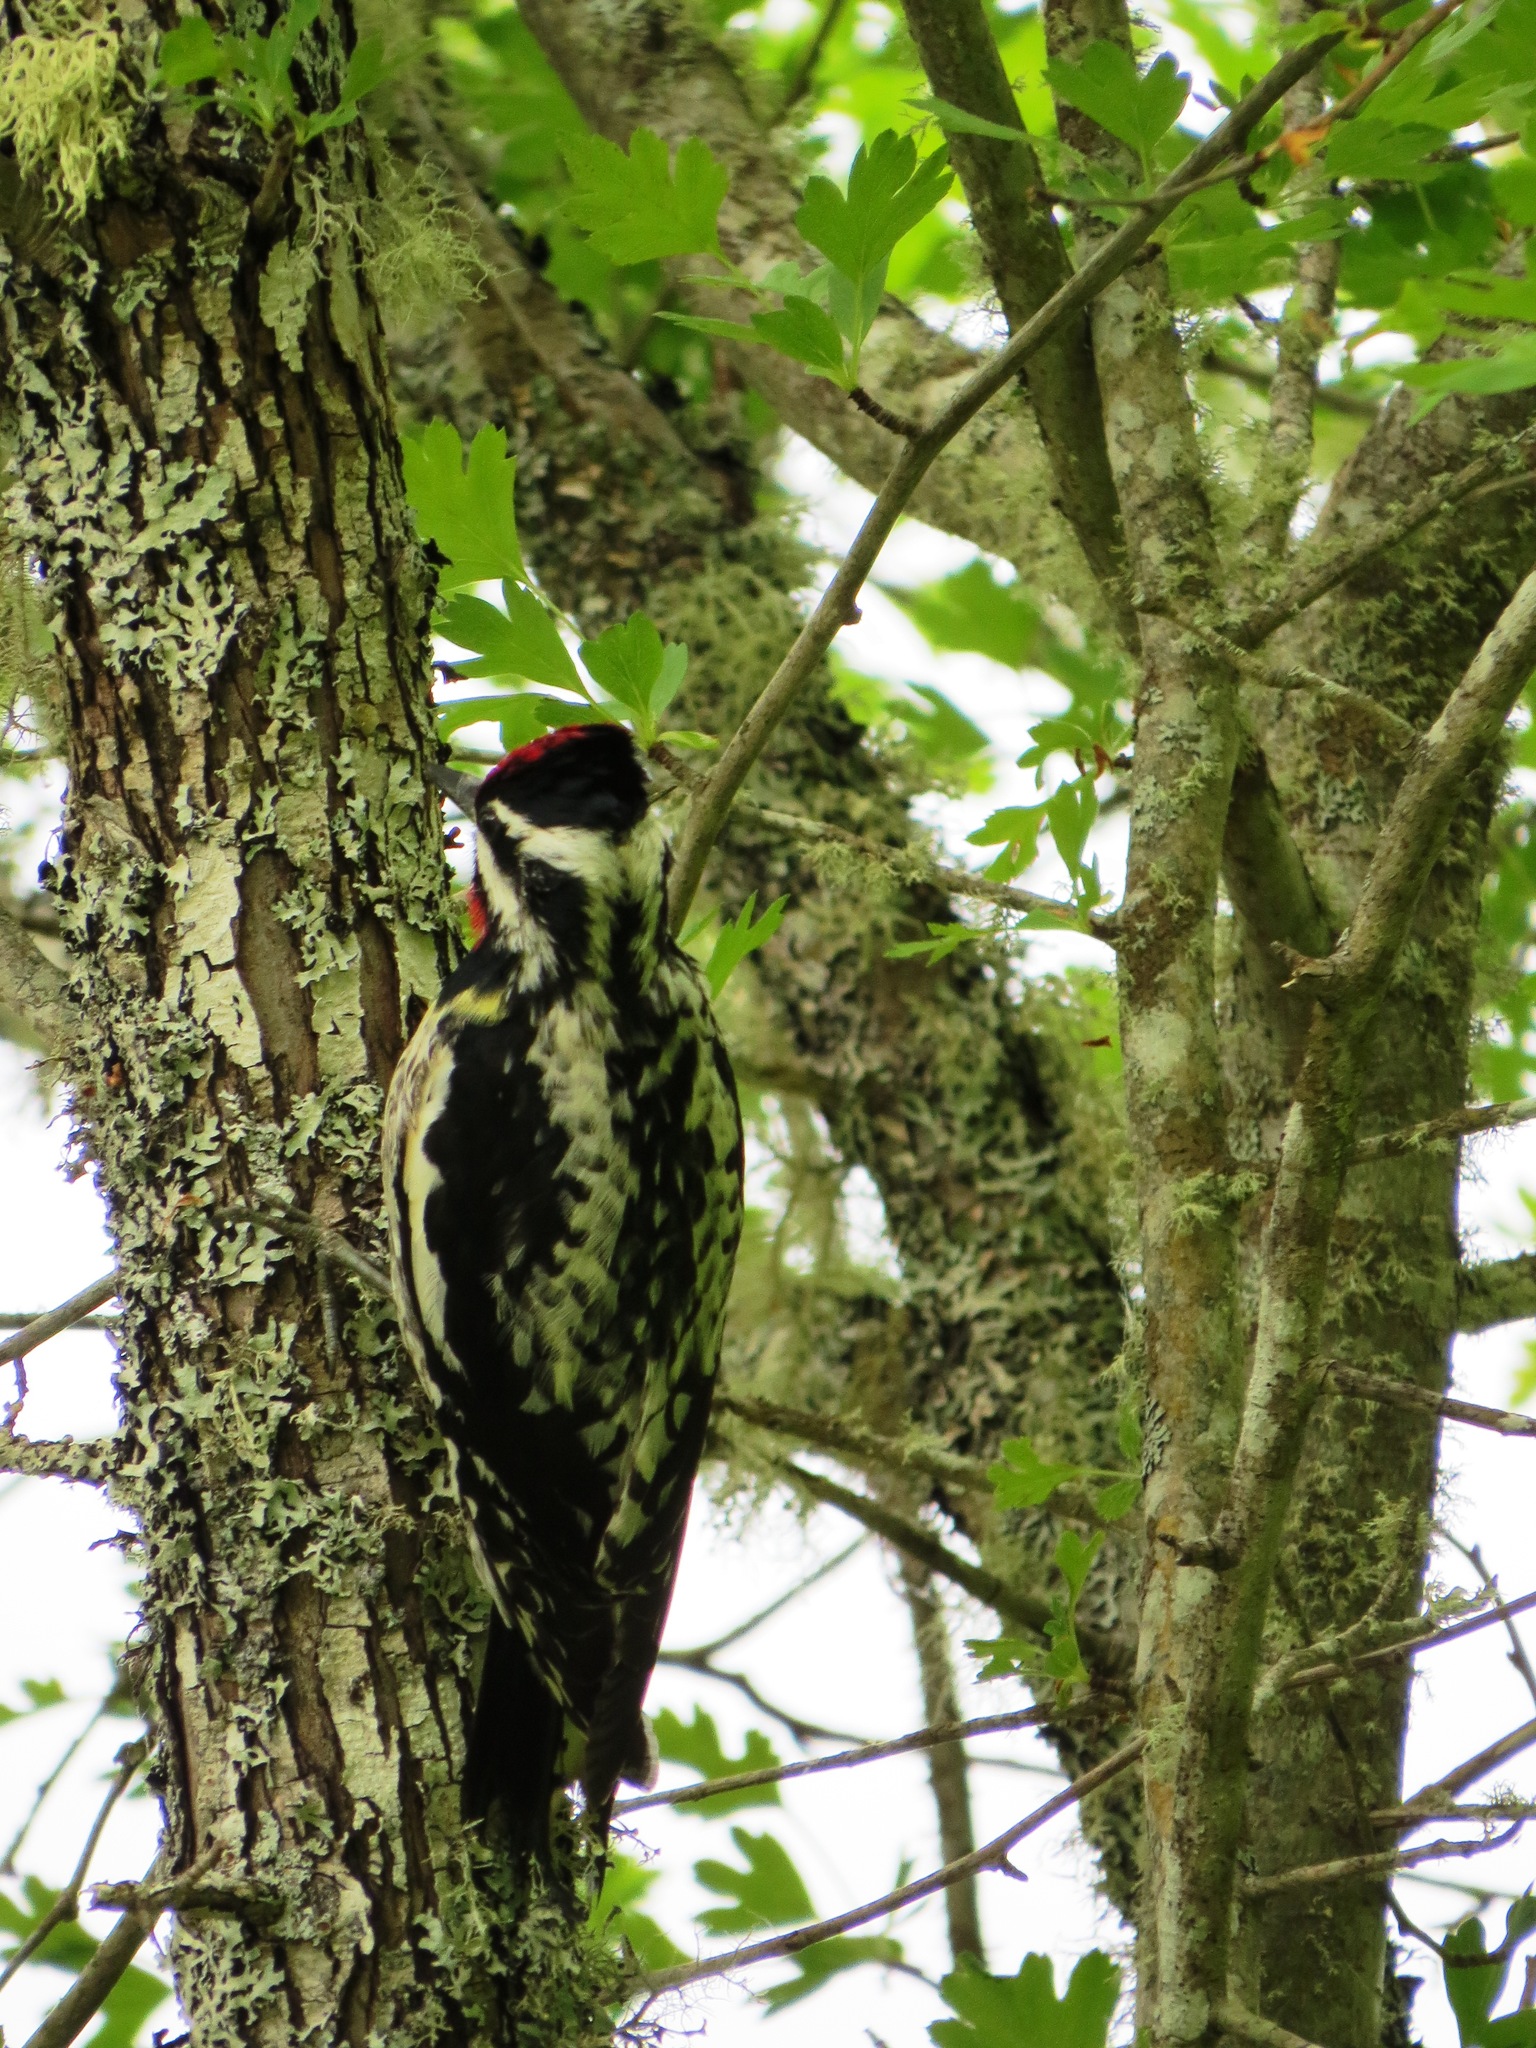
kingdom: Animalia
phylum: Chordata
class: Aves
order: Piciformes
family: Picidae
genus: Sphyrapicus
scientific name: Sphyrapicus varius
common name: Yellow-bellied sapsucker
